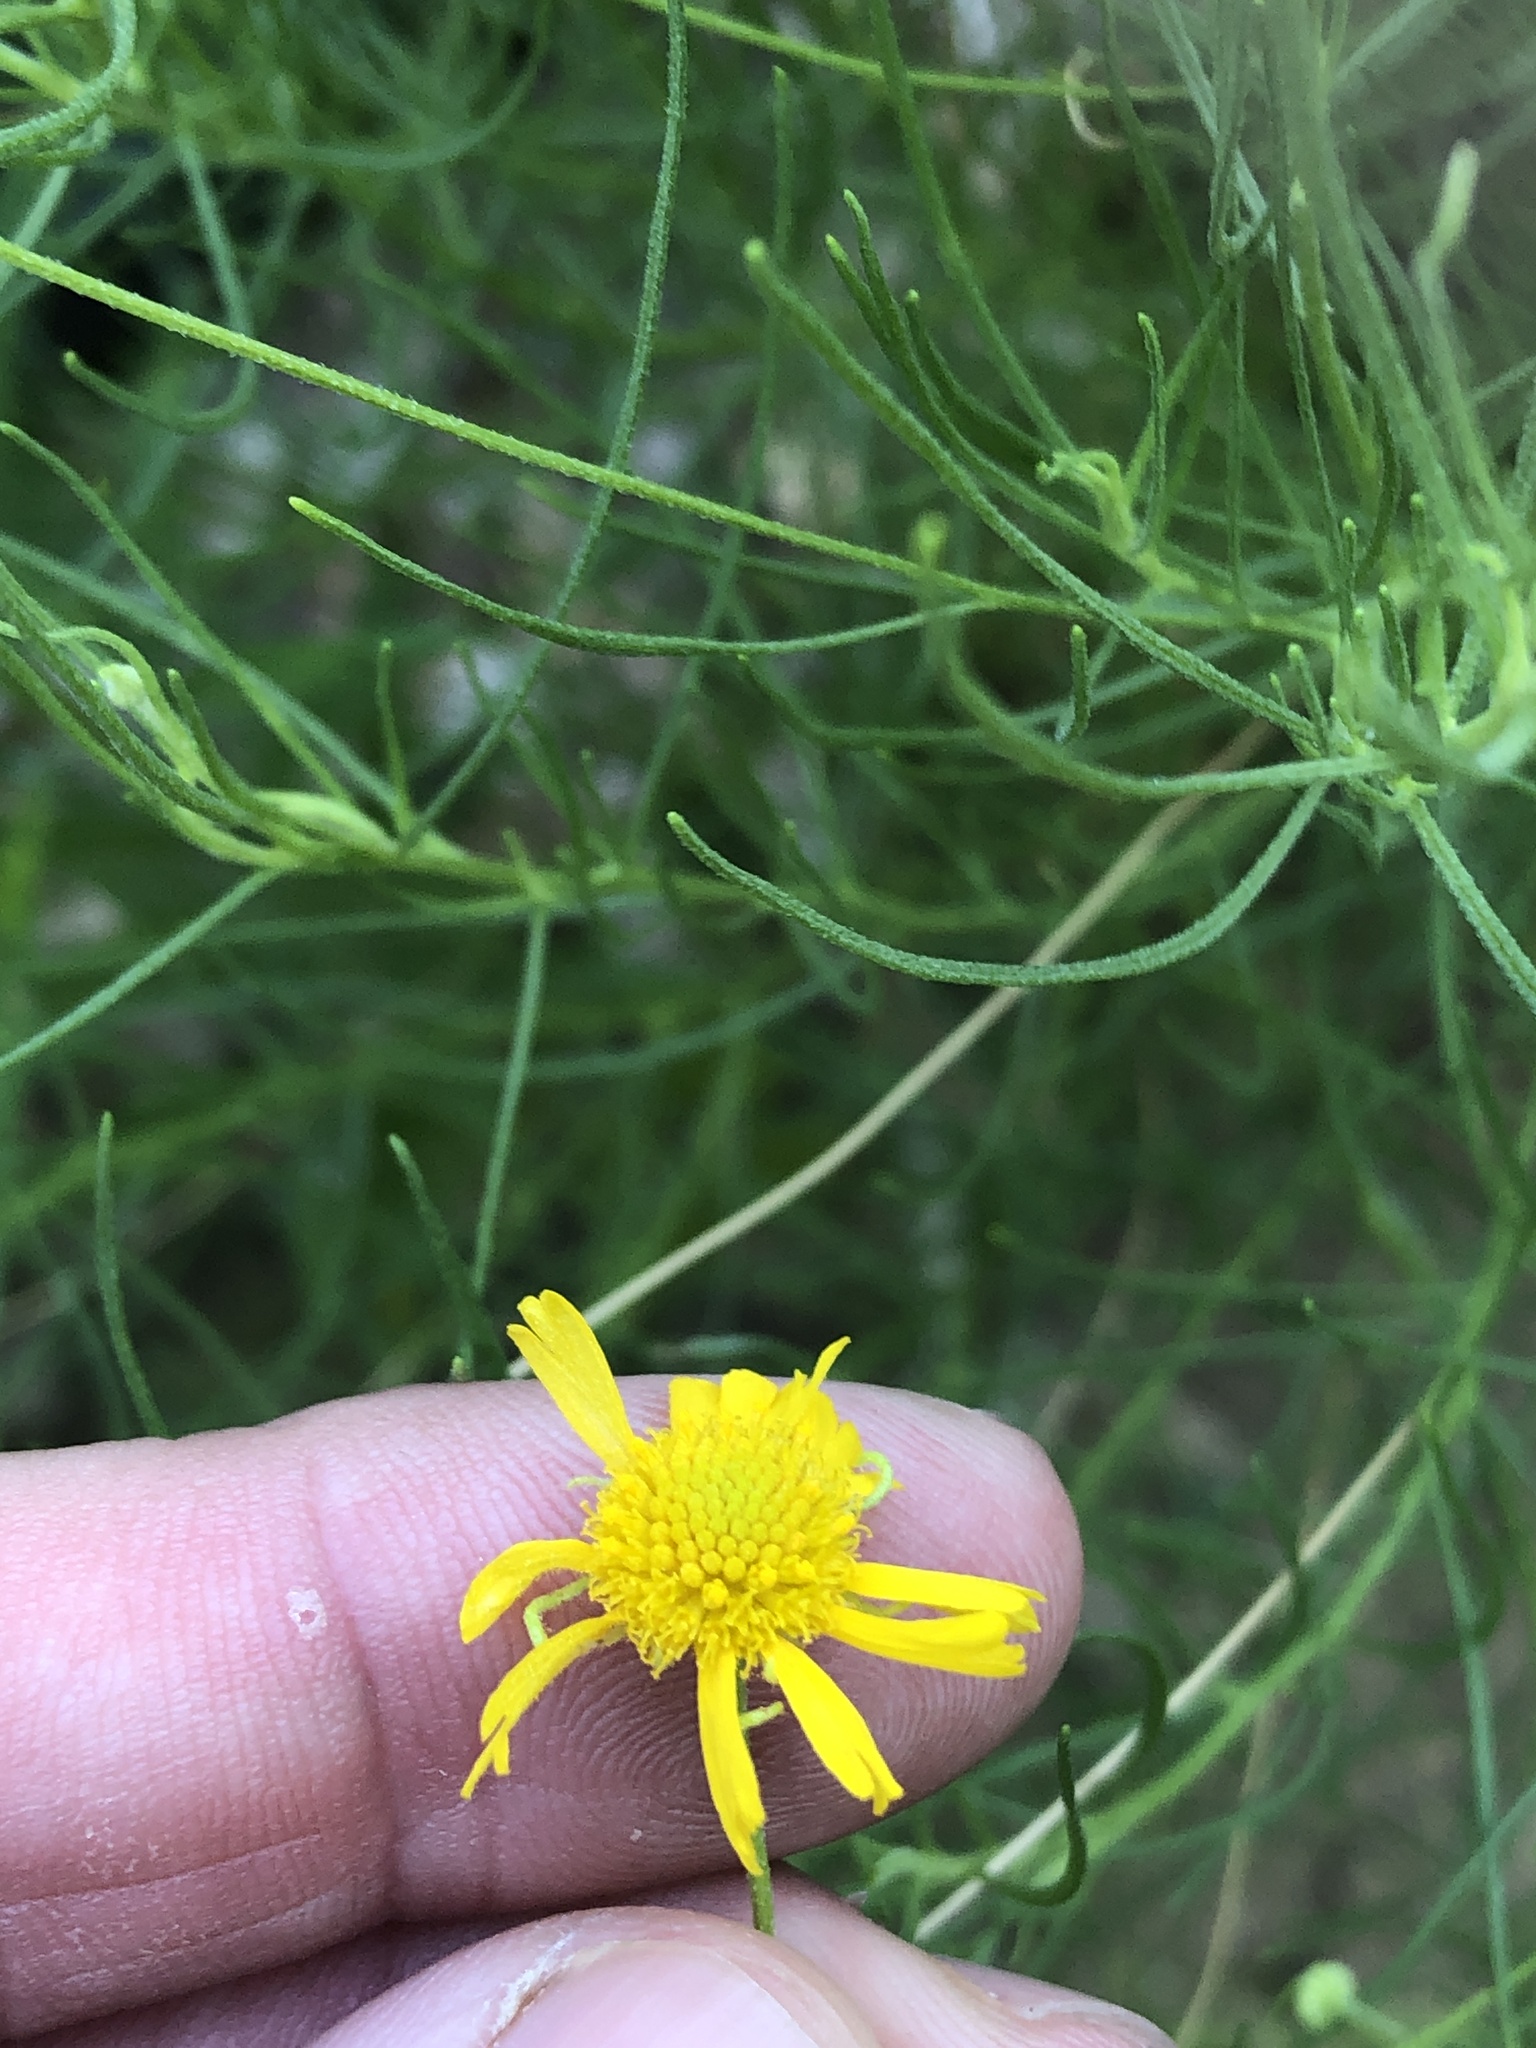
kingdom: Plantae
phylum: Tracheophyta
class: Magnoliopsida
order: Asterales
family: Asteraceae
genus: Helenium
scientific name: Helenium amarum
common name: Bitter sneezeweed
